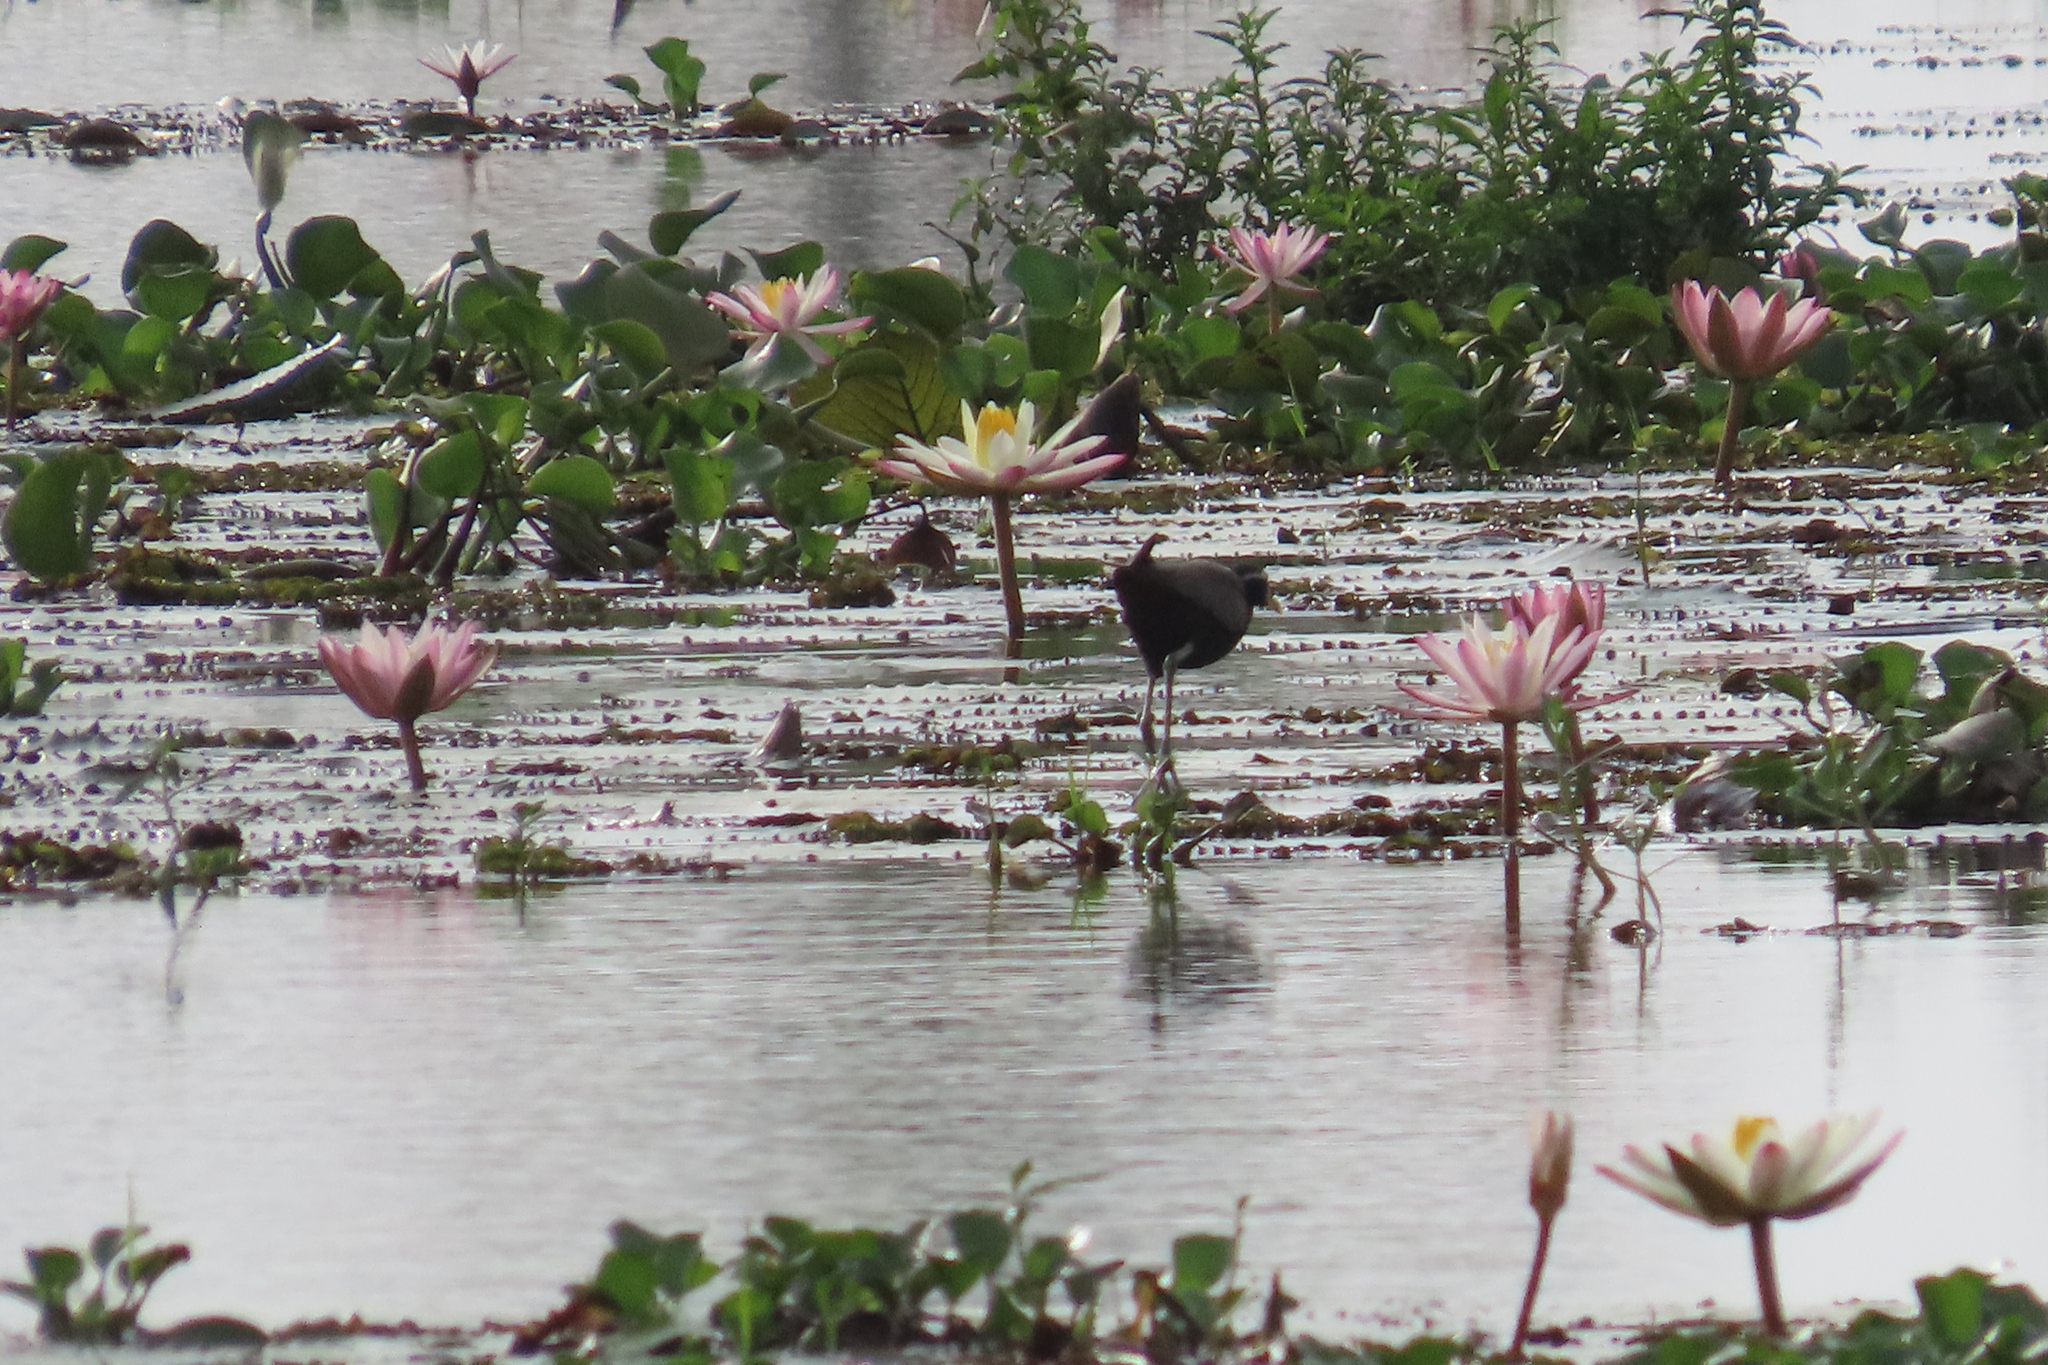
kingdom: Animalia
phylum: Chordata
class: Aves
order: Charadriiformes
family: Jacanidae
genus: Metopidius
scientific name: Metopidius indicus
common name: Bronze-winged jacana
